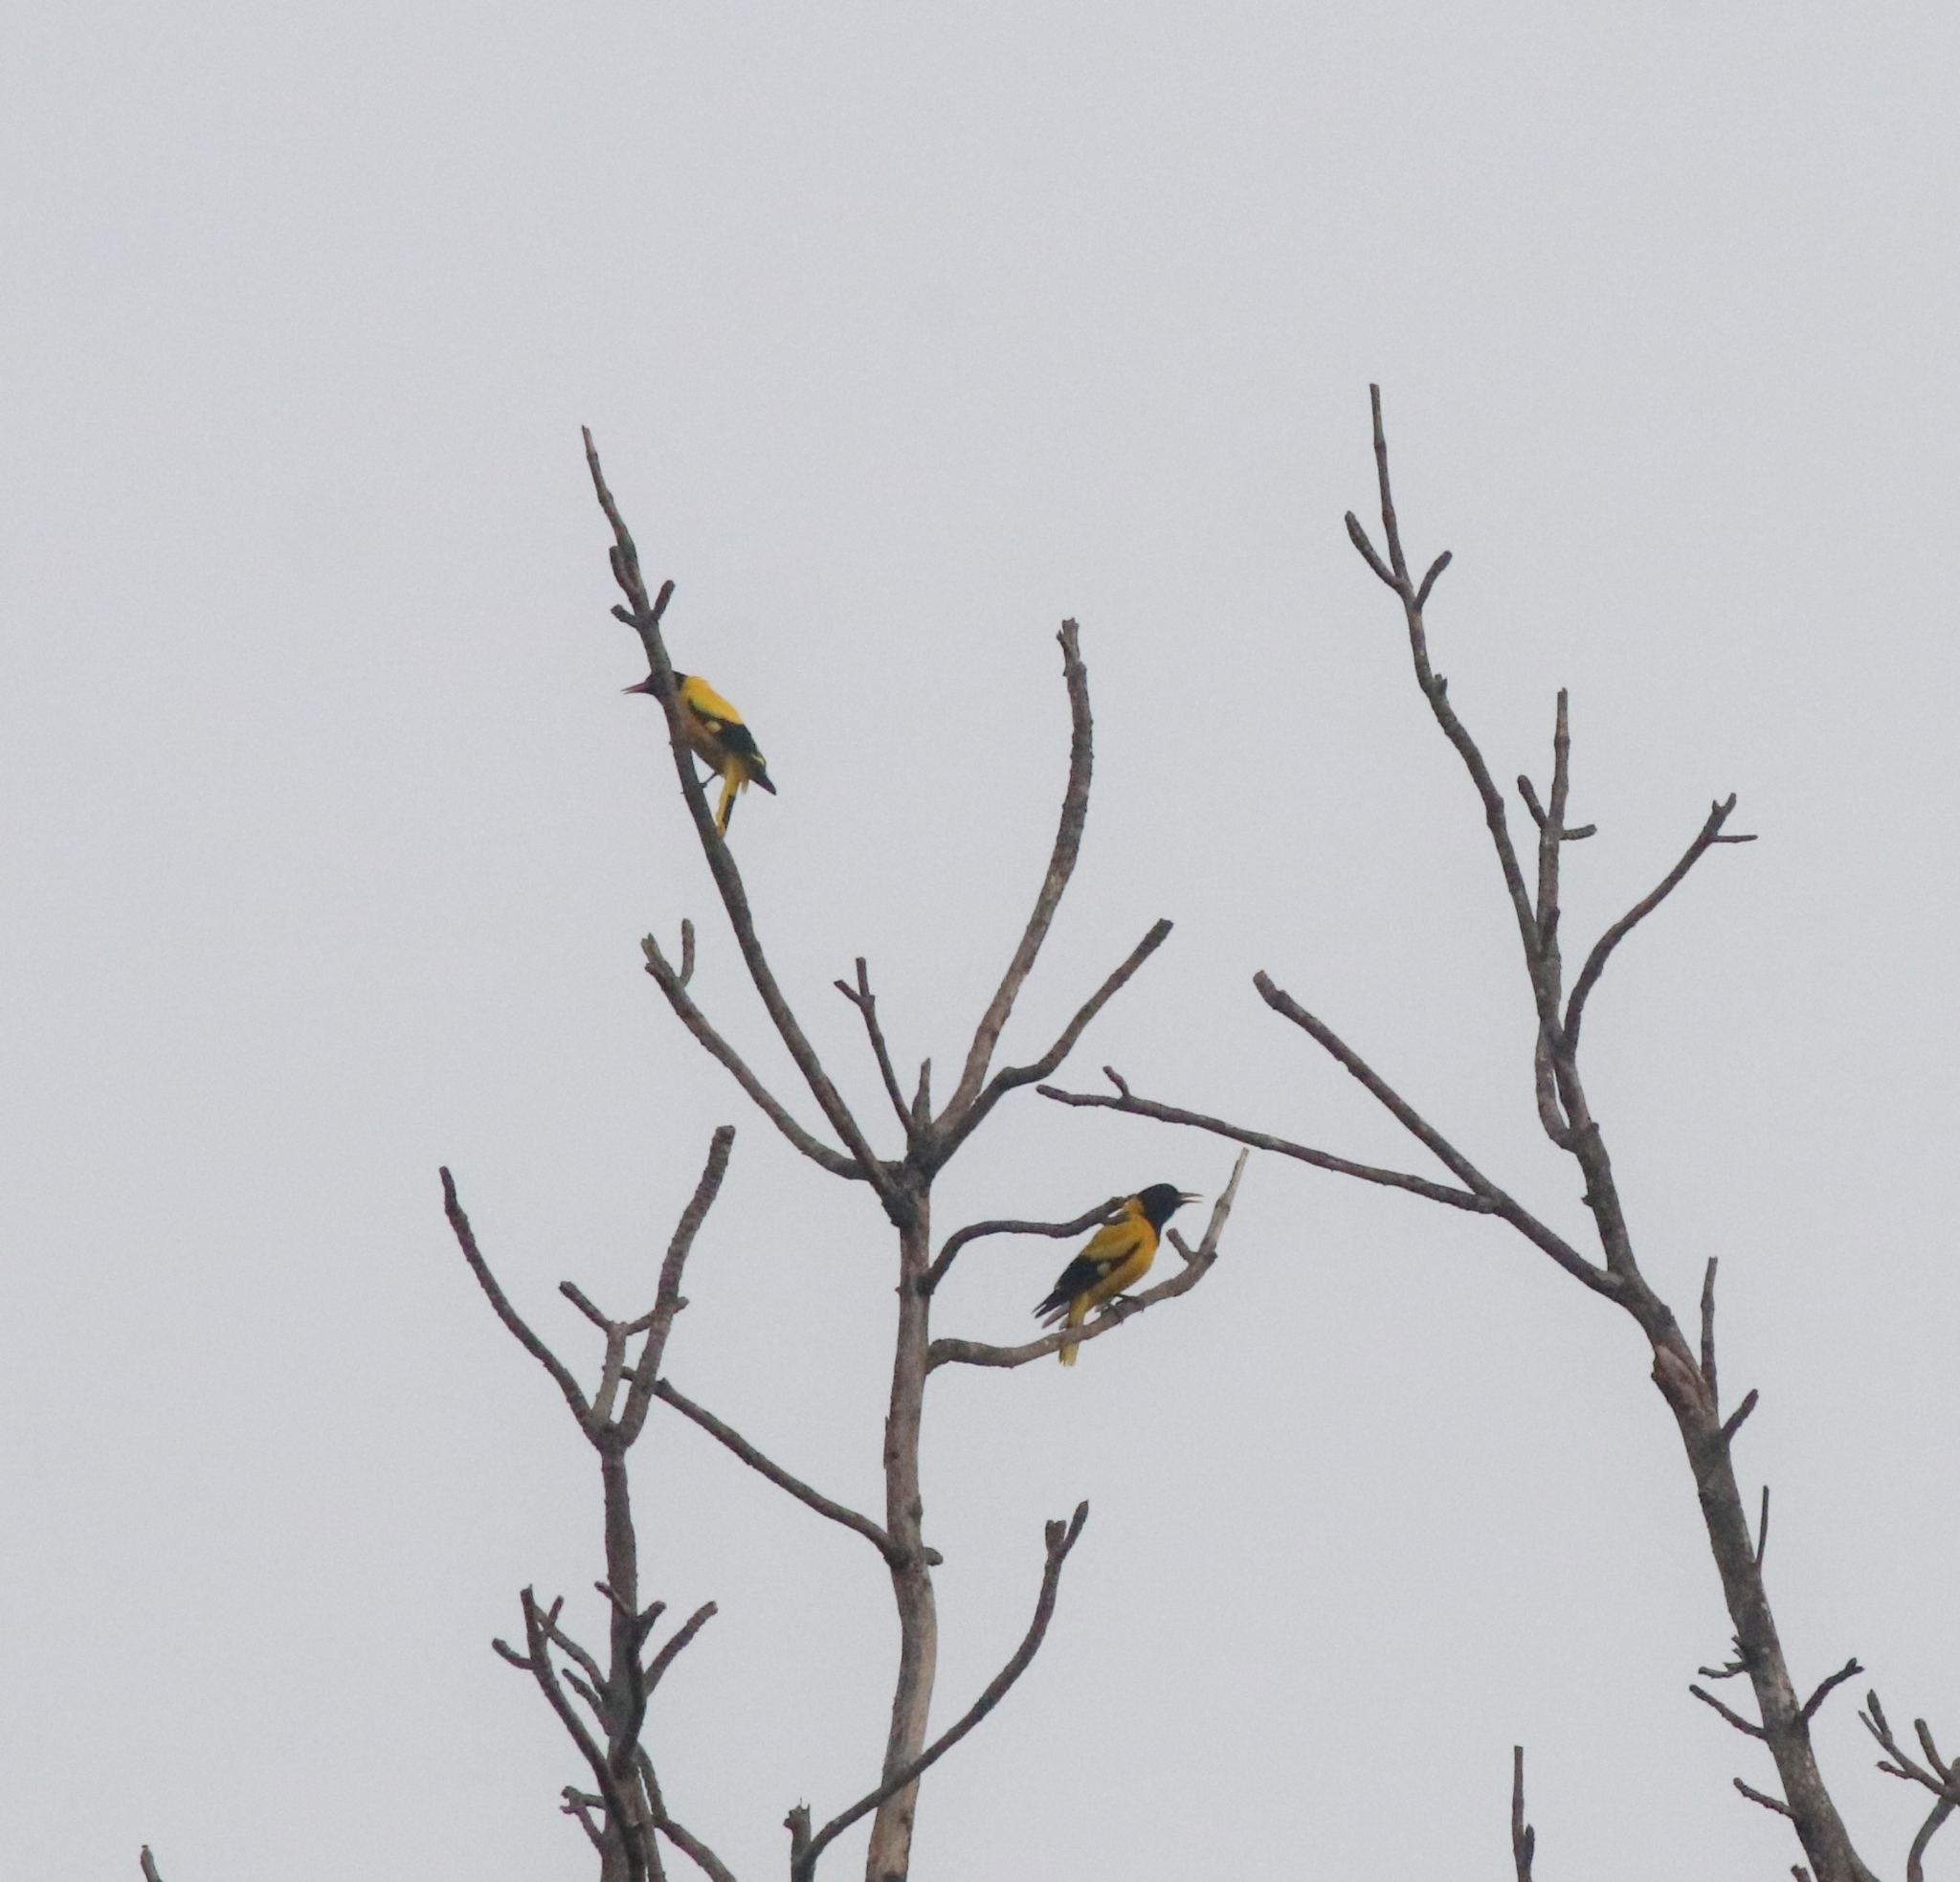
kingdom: Animalia
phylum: Chordata
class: Aves
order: Passeriformes
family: Oriolidae
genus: Oriolus
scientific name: Oriolus xanthornus
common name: Black-hooded oriole
